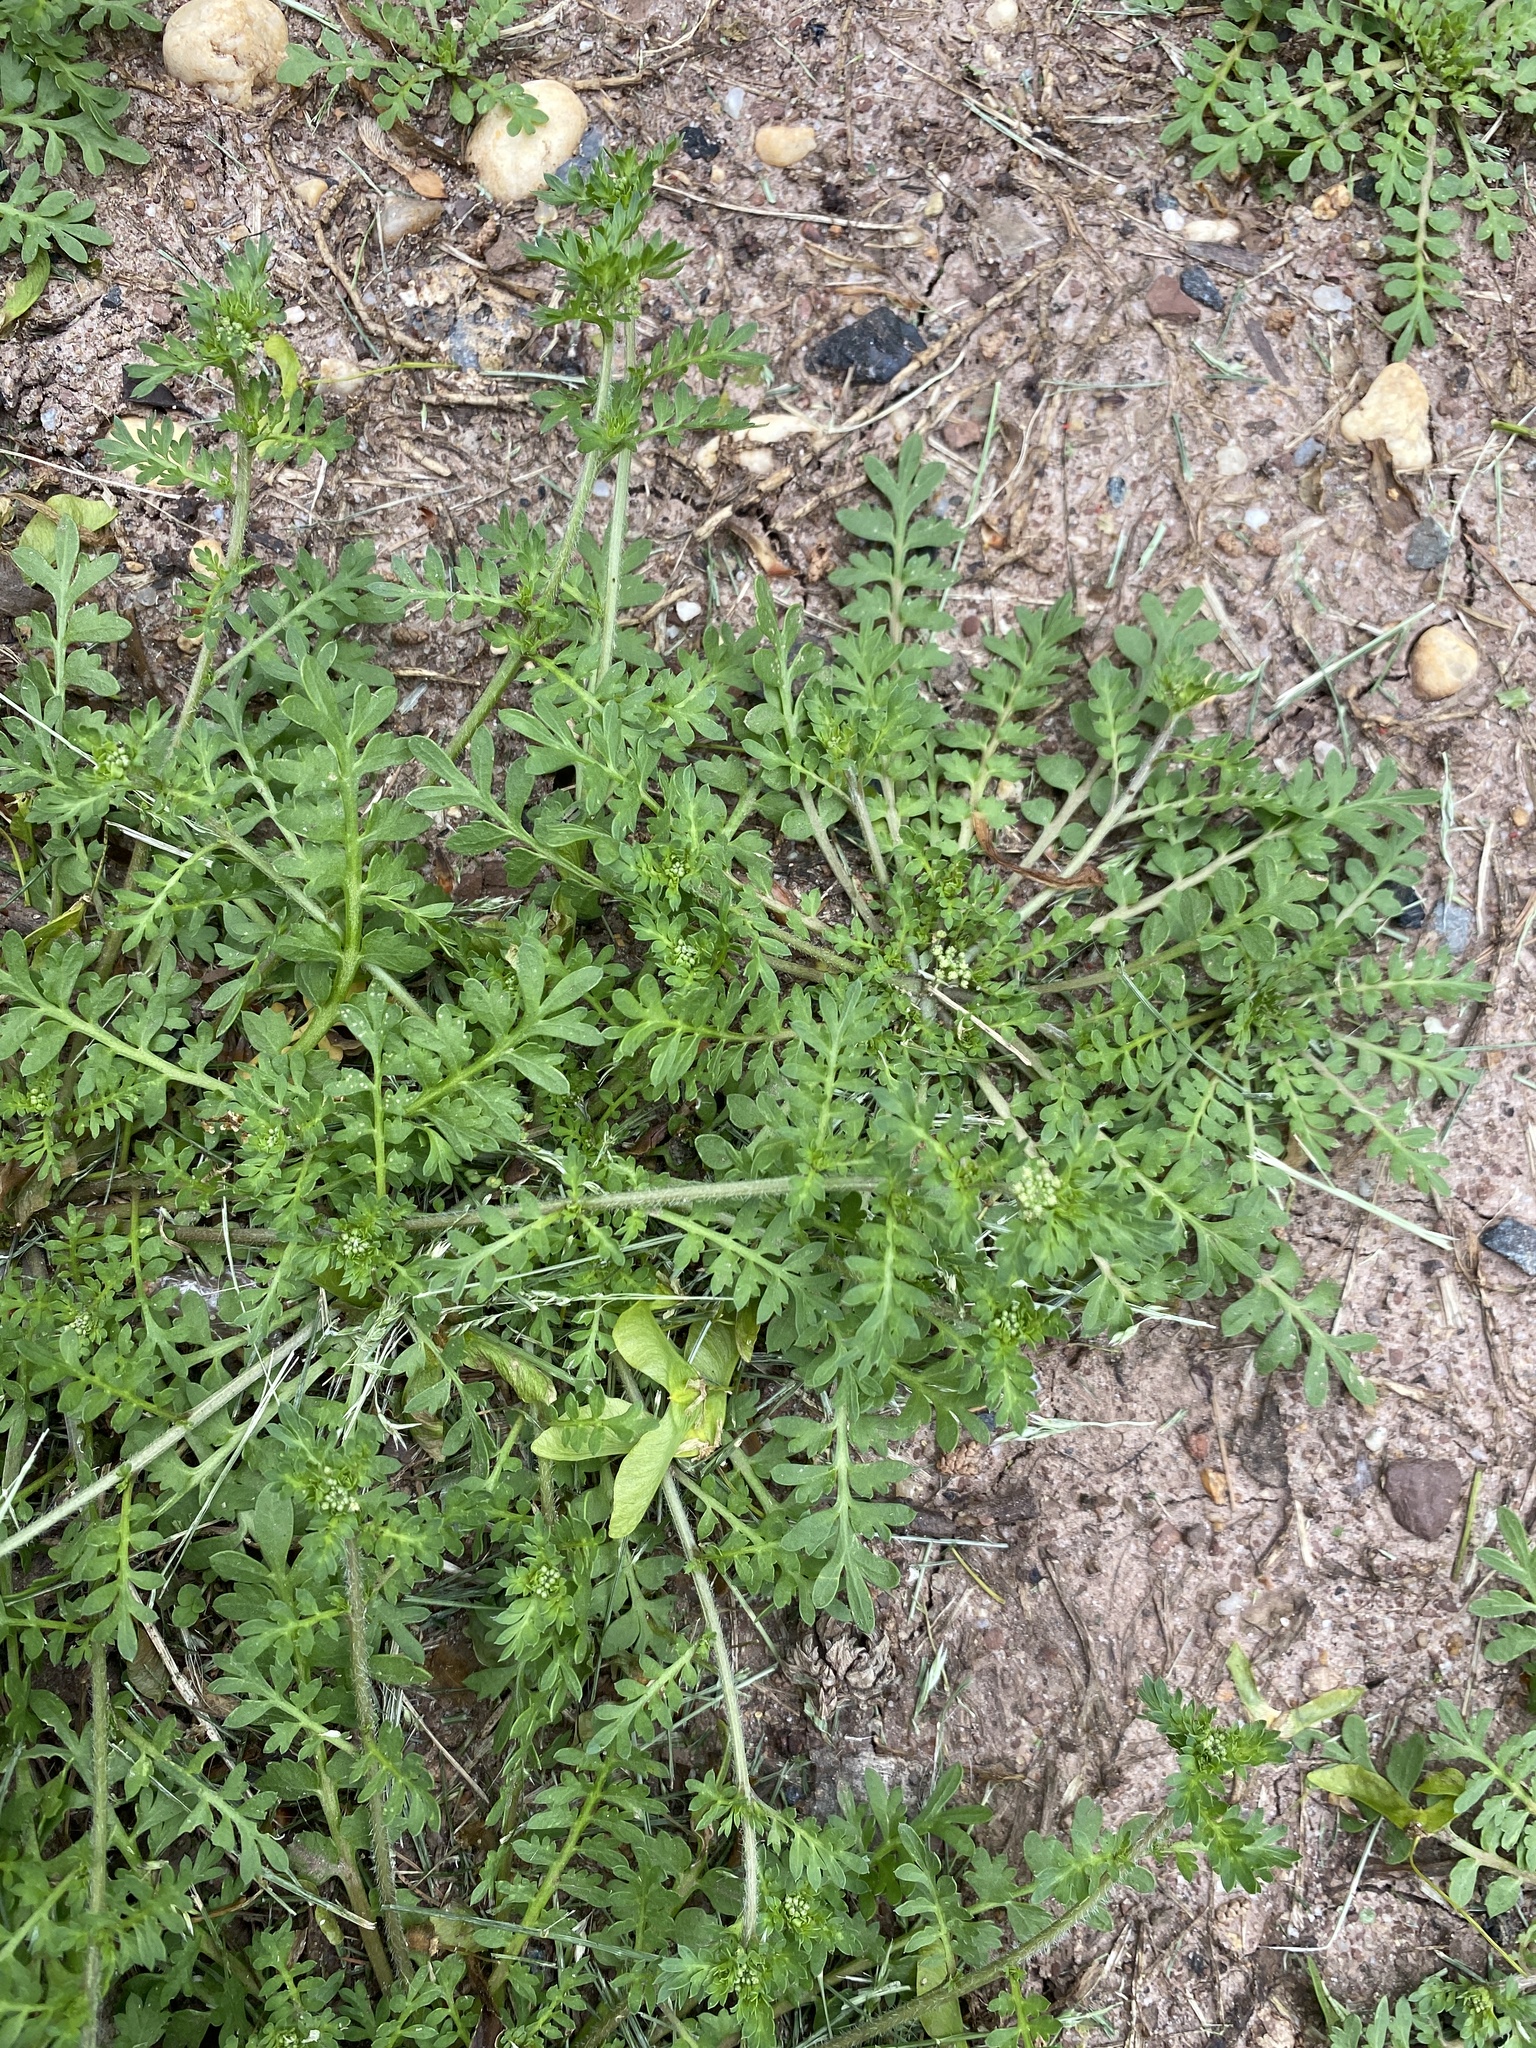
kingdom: Plantae
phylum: Tracheophyta
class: Magnoliopsida
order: Brassicales
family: Brassicaceae
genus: Lepidium
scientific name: Lepidium didymum
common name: Lesser swinecress
